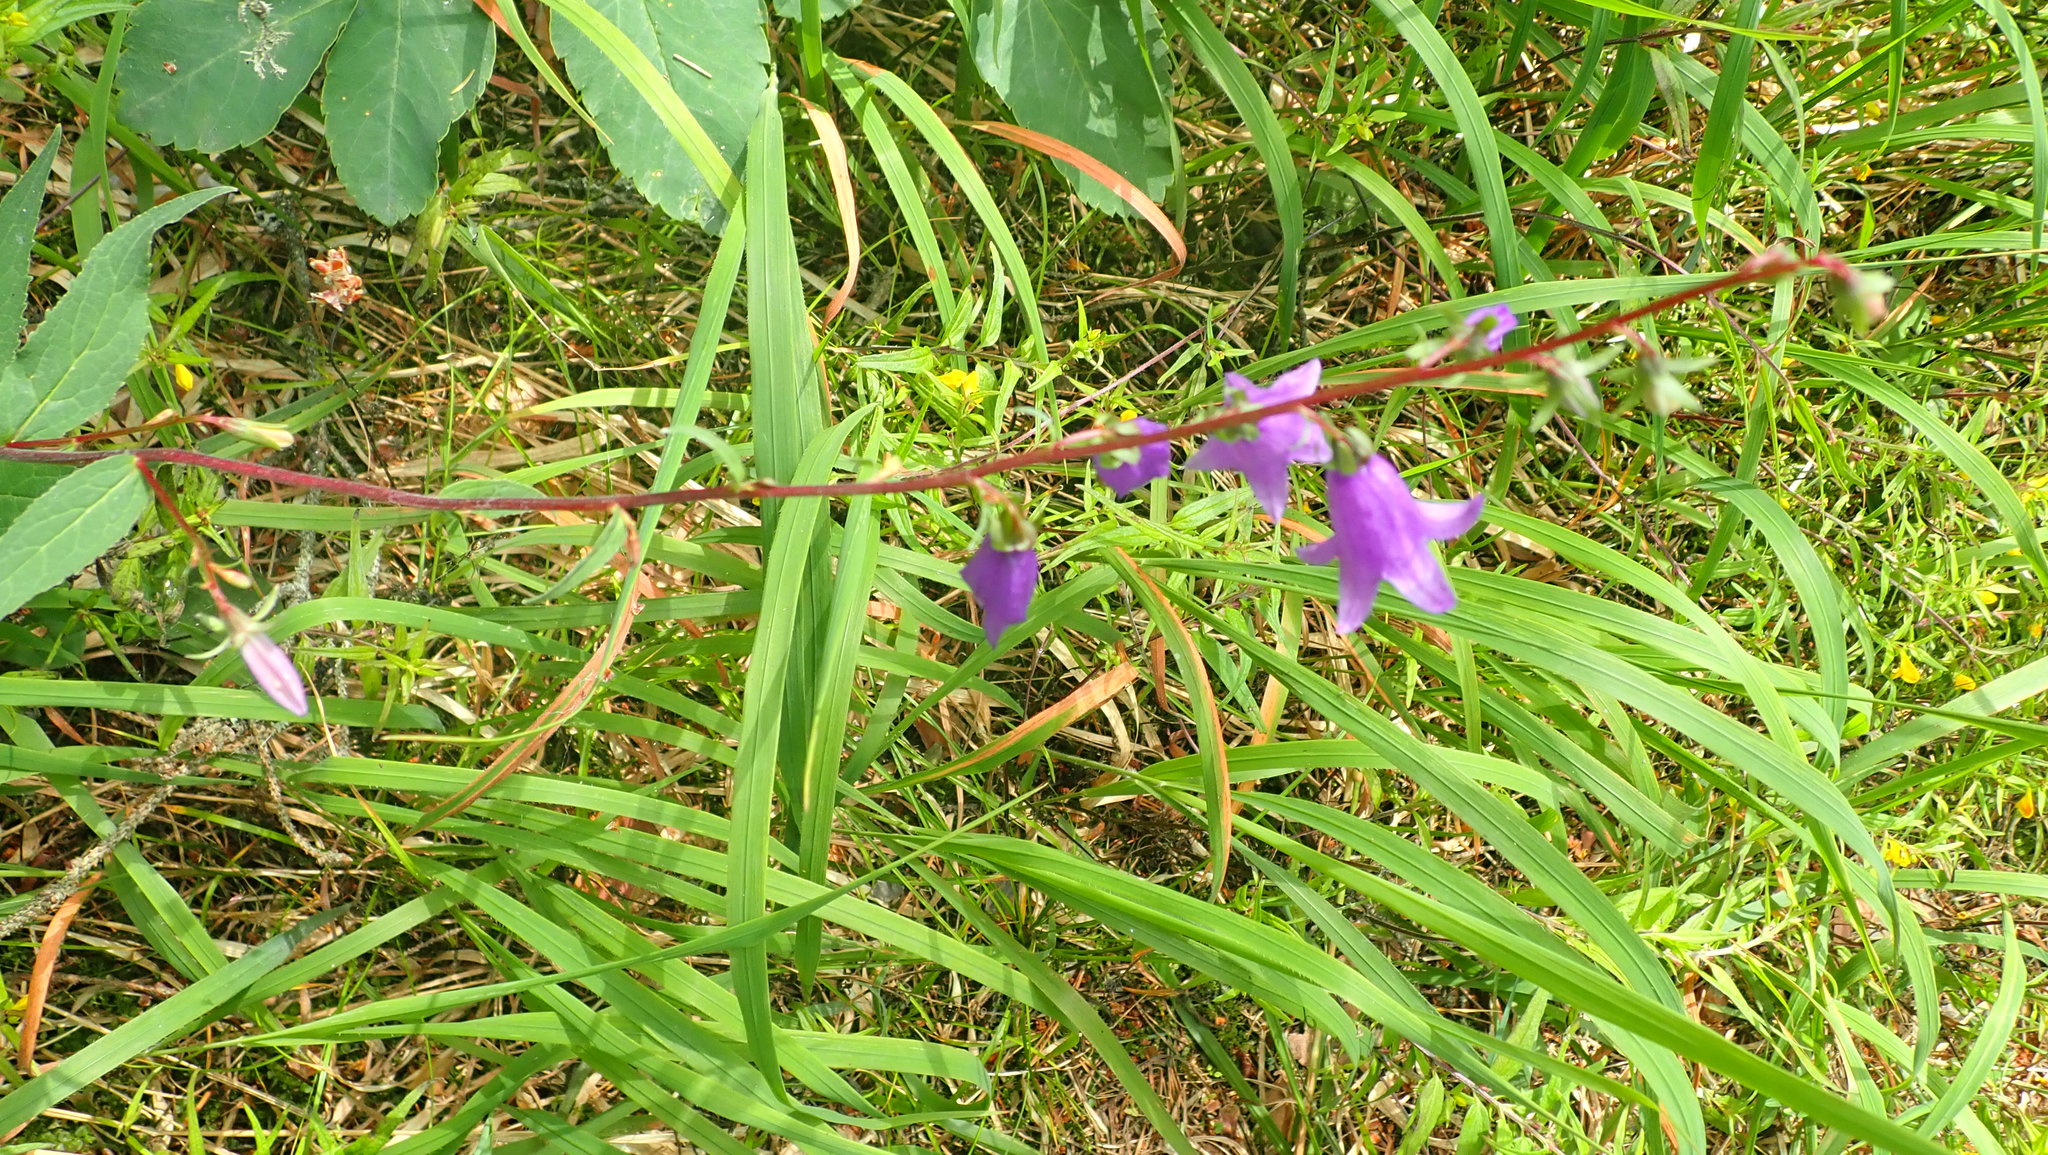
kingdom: Plantae
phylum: Tracheophyta
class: Magnoliopsida
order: Asterales
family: Campanulaceae
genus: Campanula
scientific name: Campanula rapunculoides
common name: Creeping bellflower
